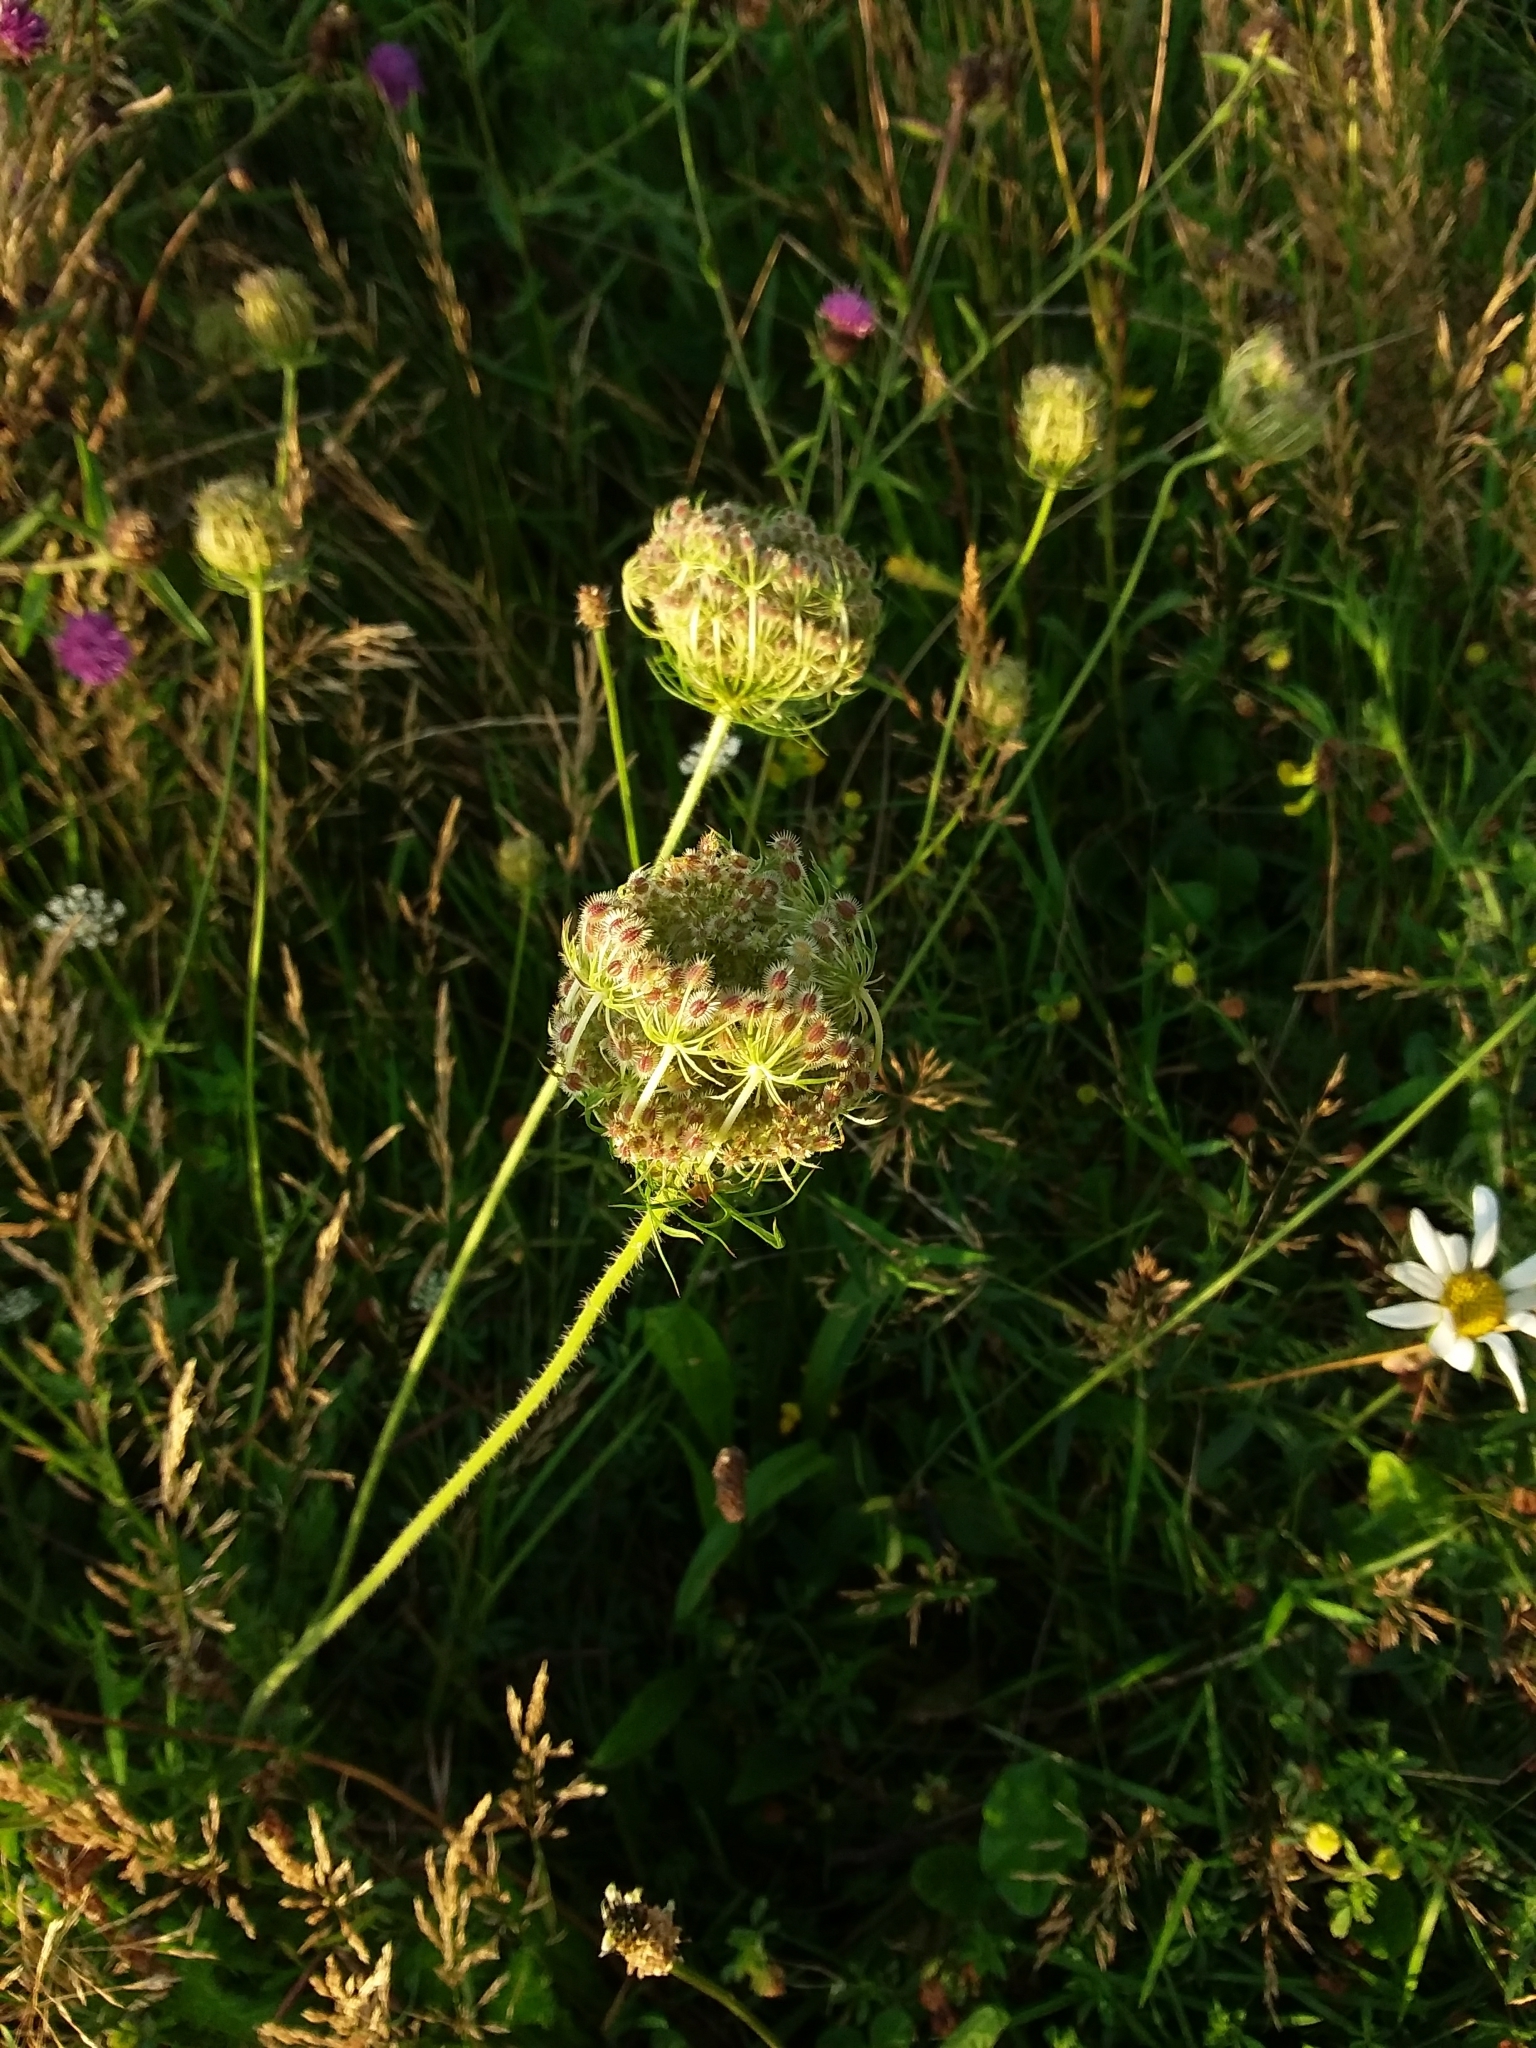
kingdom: Plantae
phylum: Tracheophyta
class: Magnoliopsida
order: Apiales
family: Apiaceae
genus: Daucus
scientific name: Daucus carota
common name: Wild carrot
